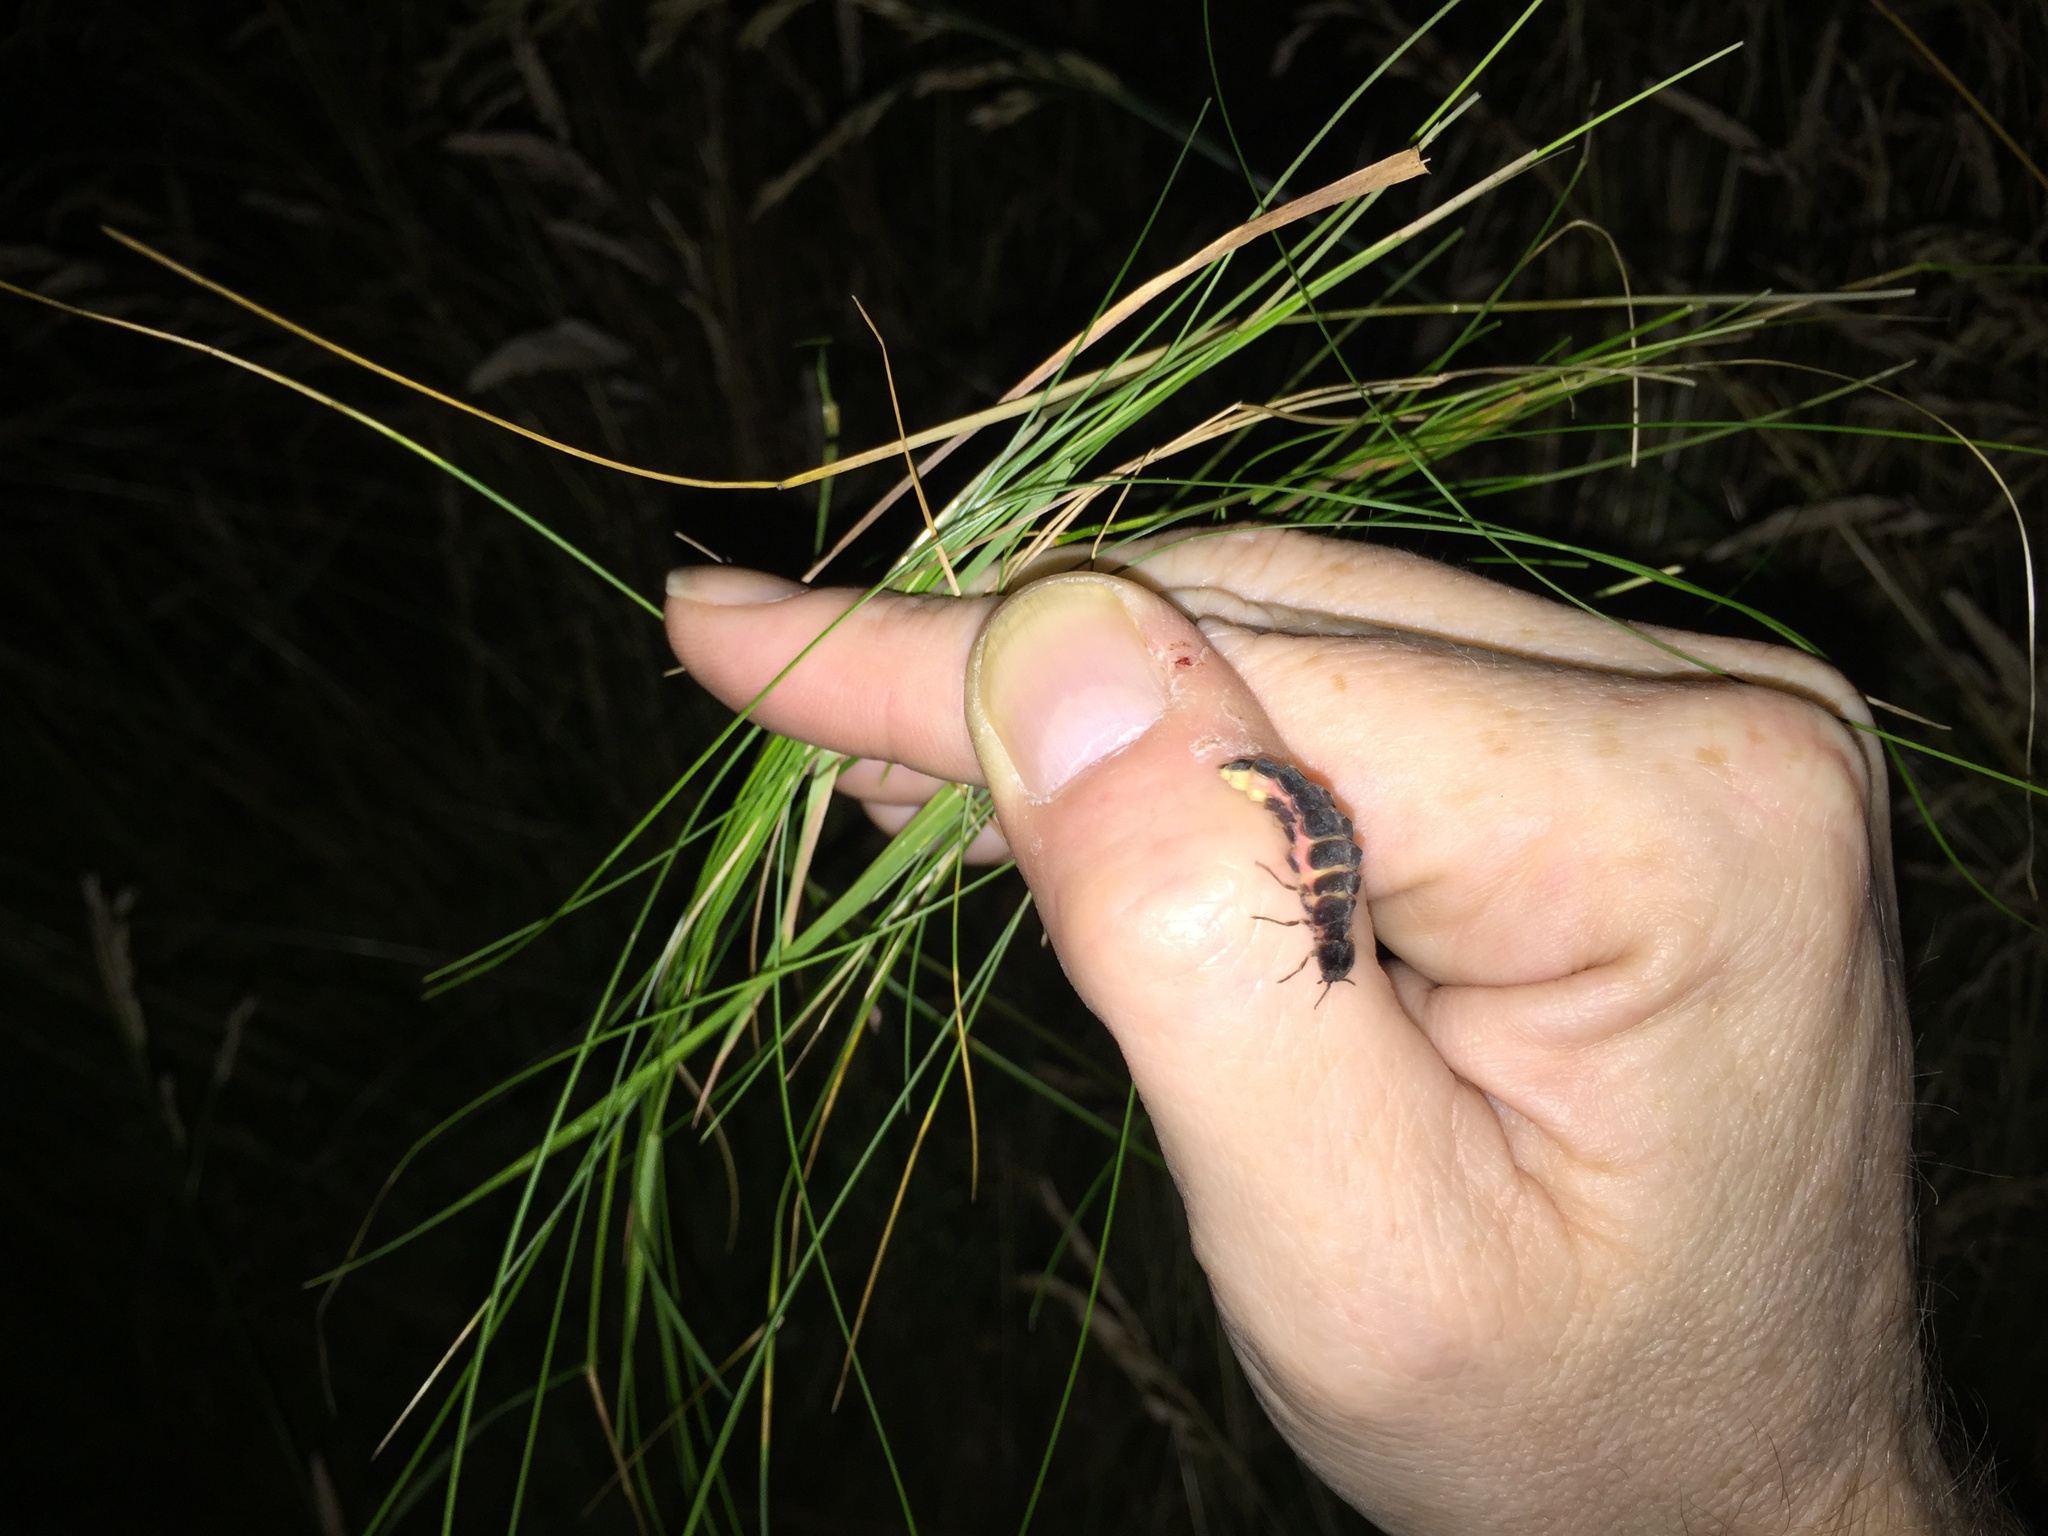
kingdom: Animalia
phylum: Arthropoda
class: Insecta
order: Coleoptera
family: Lampyridae
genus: Lampyris
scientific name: Lampyris noctiluca
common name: Glow-worm
